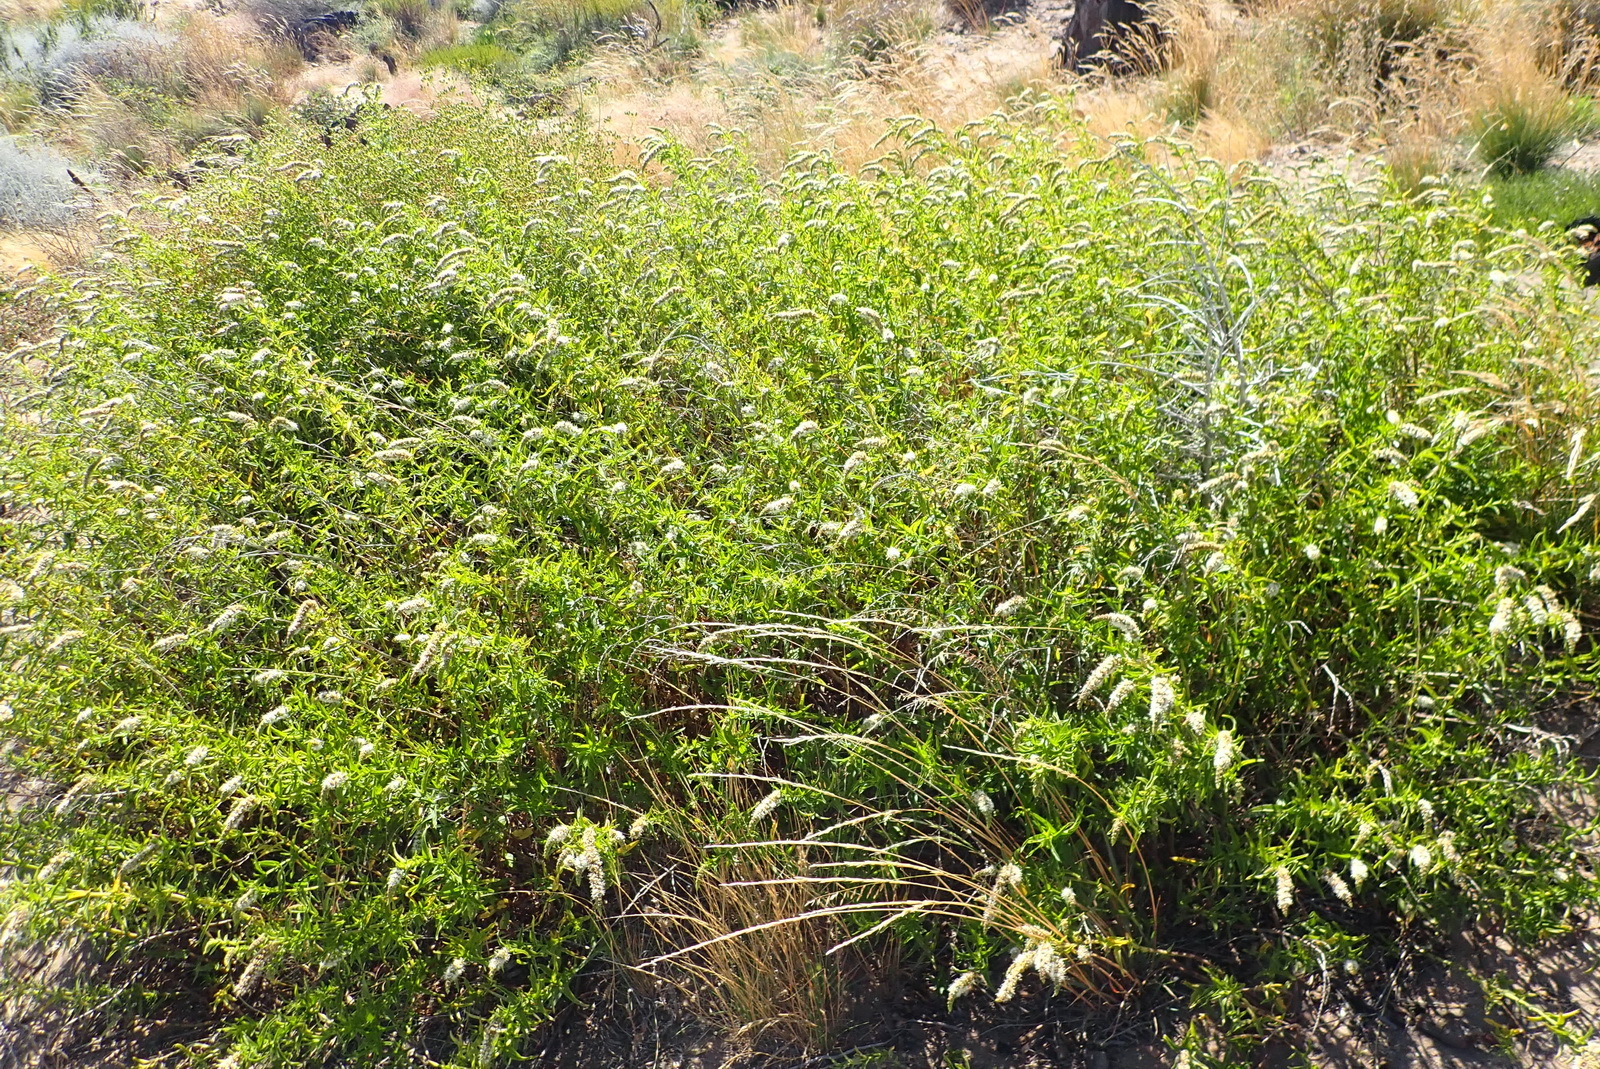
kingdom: Plantae
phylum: Tracheophyta
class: Magnoliopsida
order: Lamiales
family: Lamiaceae
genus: Mentha
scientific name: Mentha longifolia
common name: Horse mint
